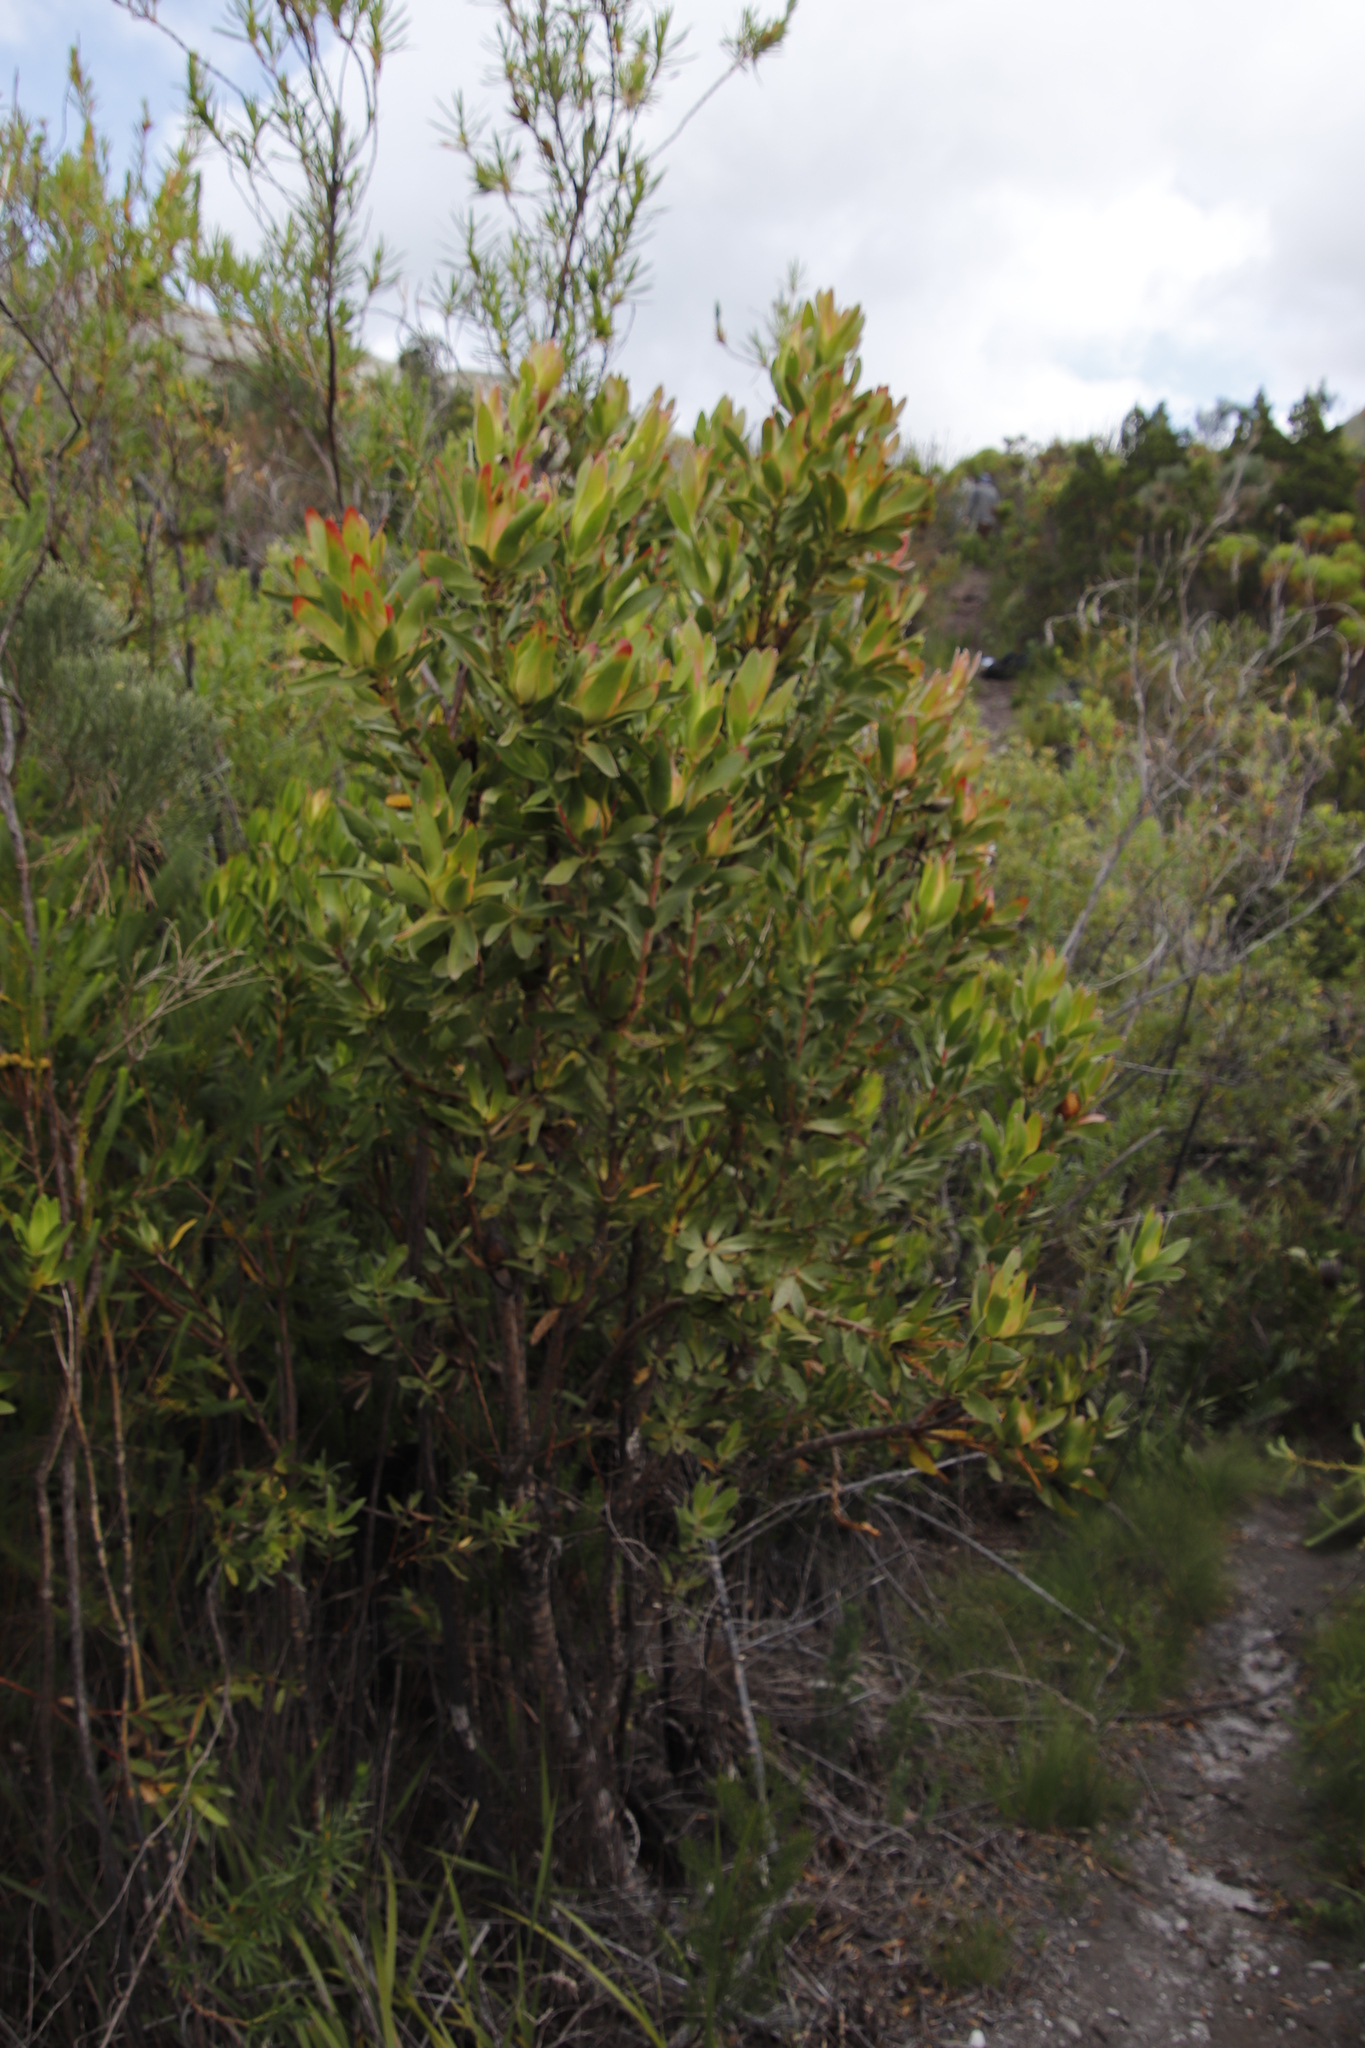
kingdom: Plantae
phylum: Tracheophyta
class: Magnoliopsida
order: Proteales
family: Proteaceae
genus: Leucadendron
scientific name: Leucadendron gandogeri
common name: Broad-leaf conebush
